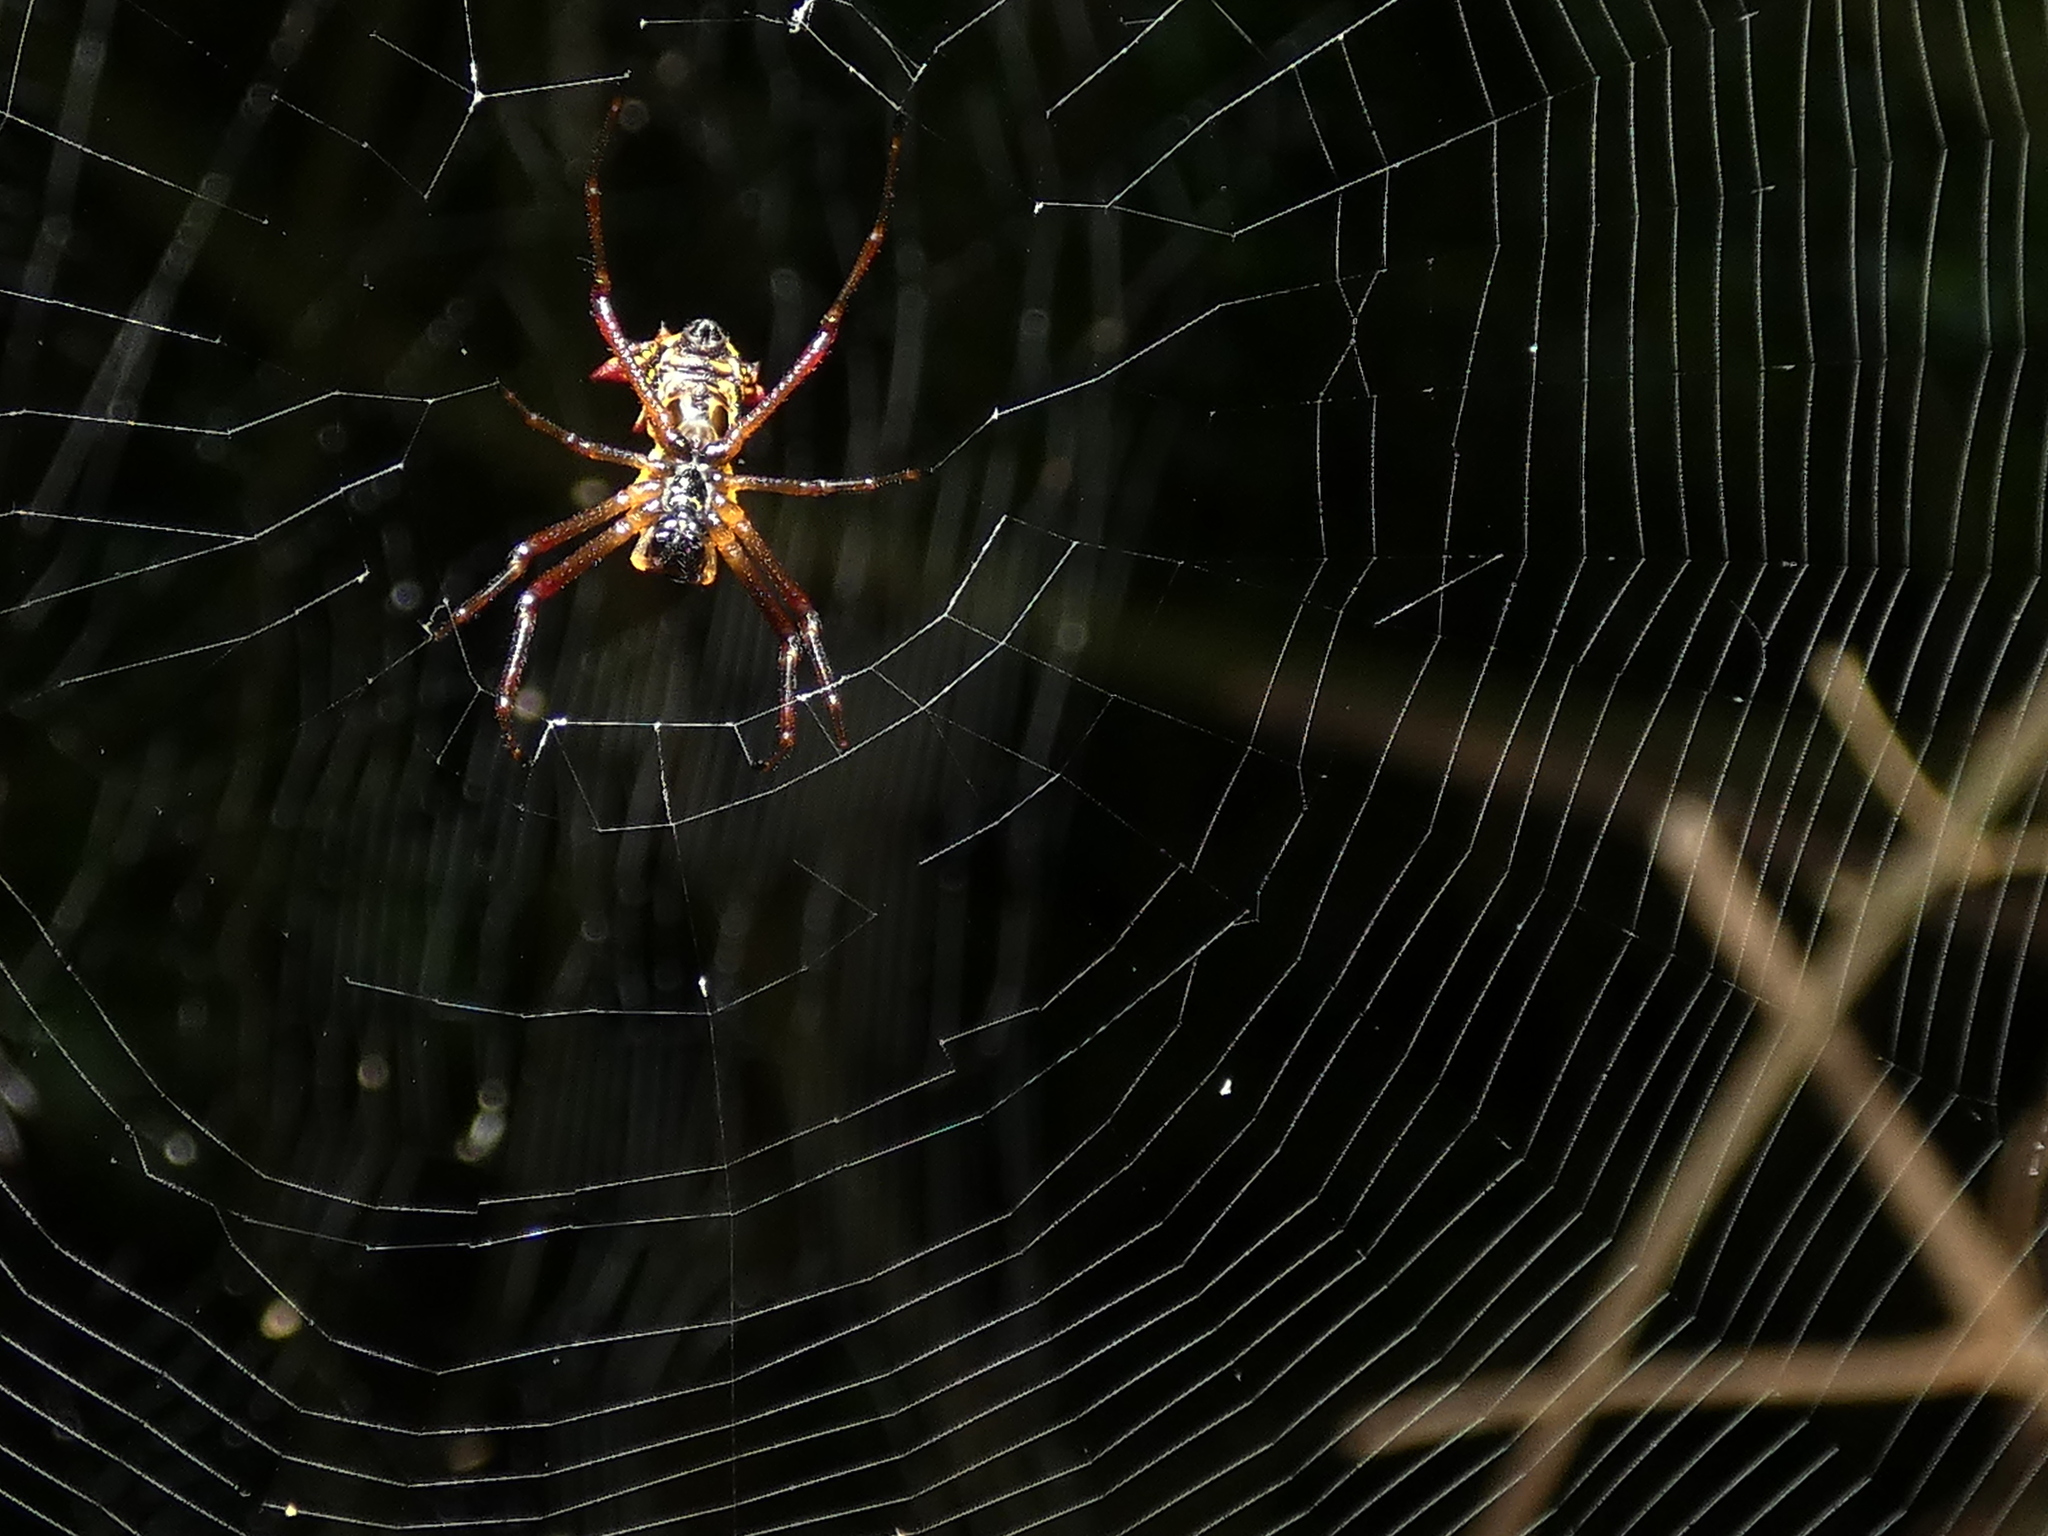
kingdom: Animalia
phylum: Arthropoda
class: Arachnida
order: Araneae
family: Araneidae
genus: Micrathena
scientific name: Micrathena fissispina
